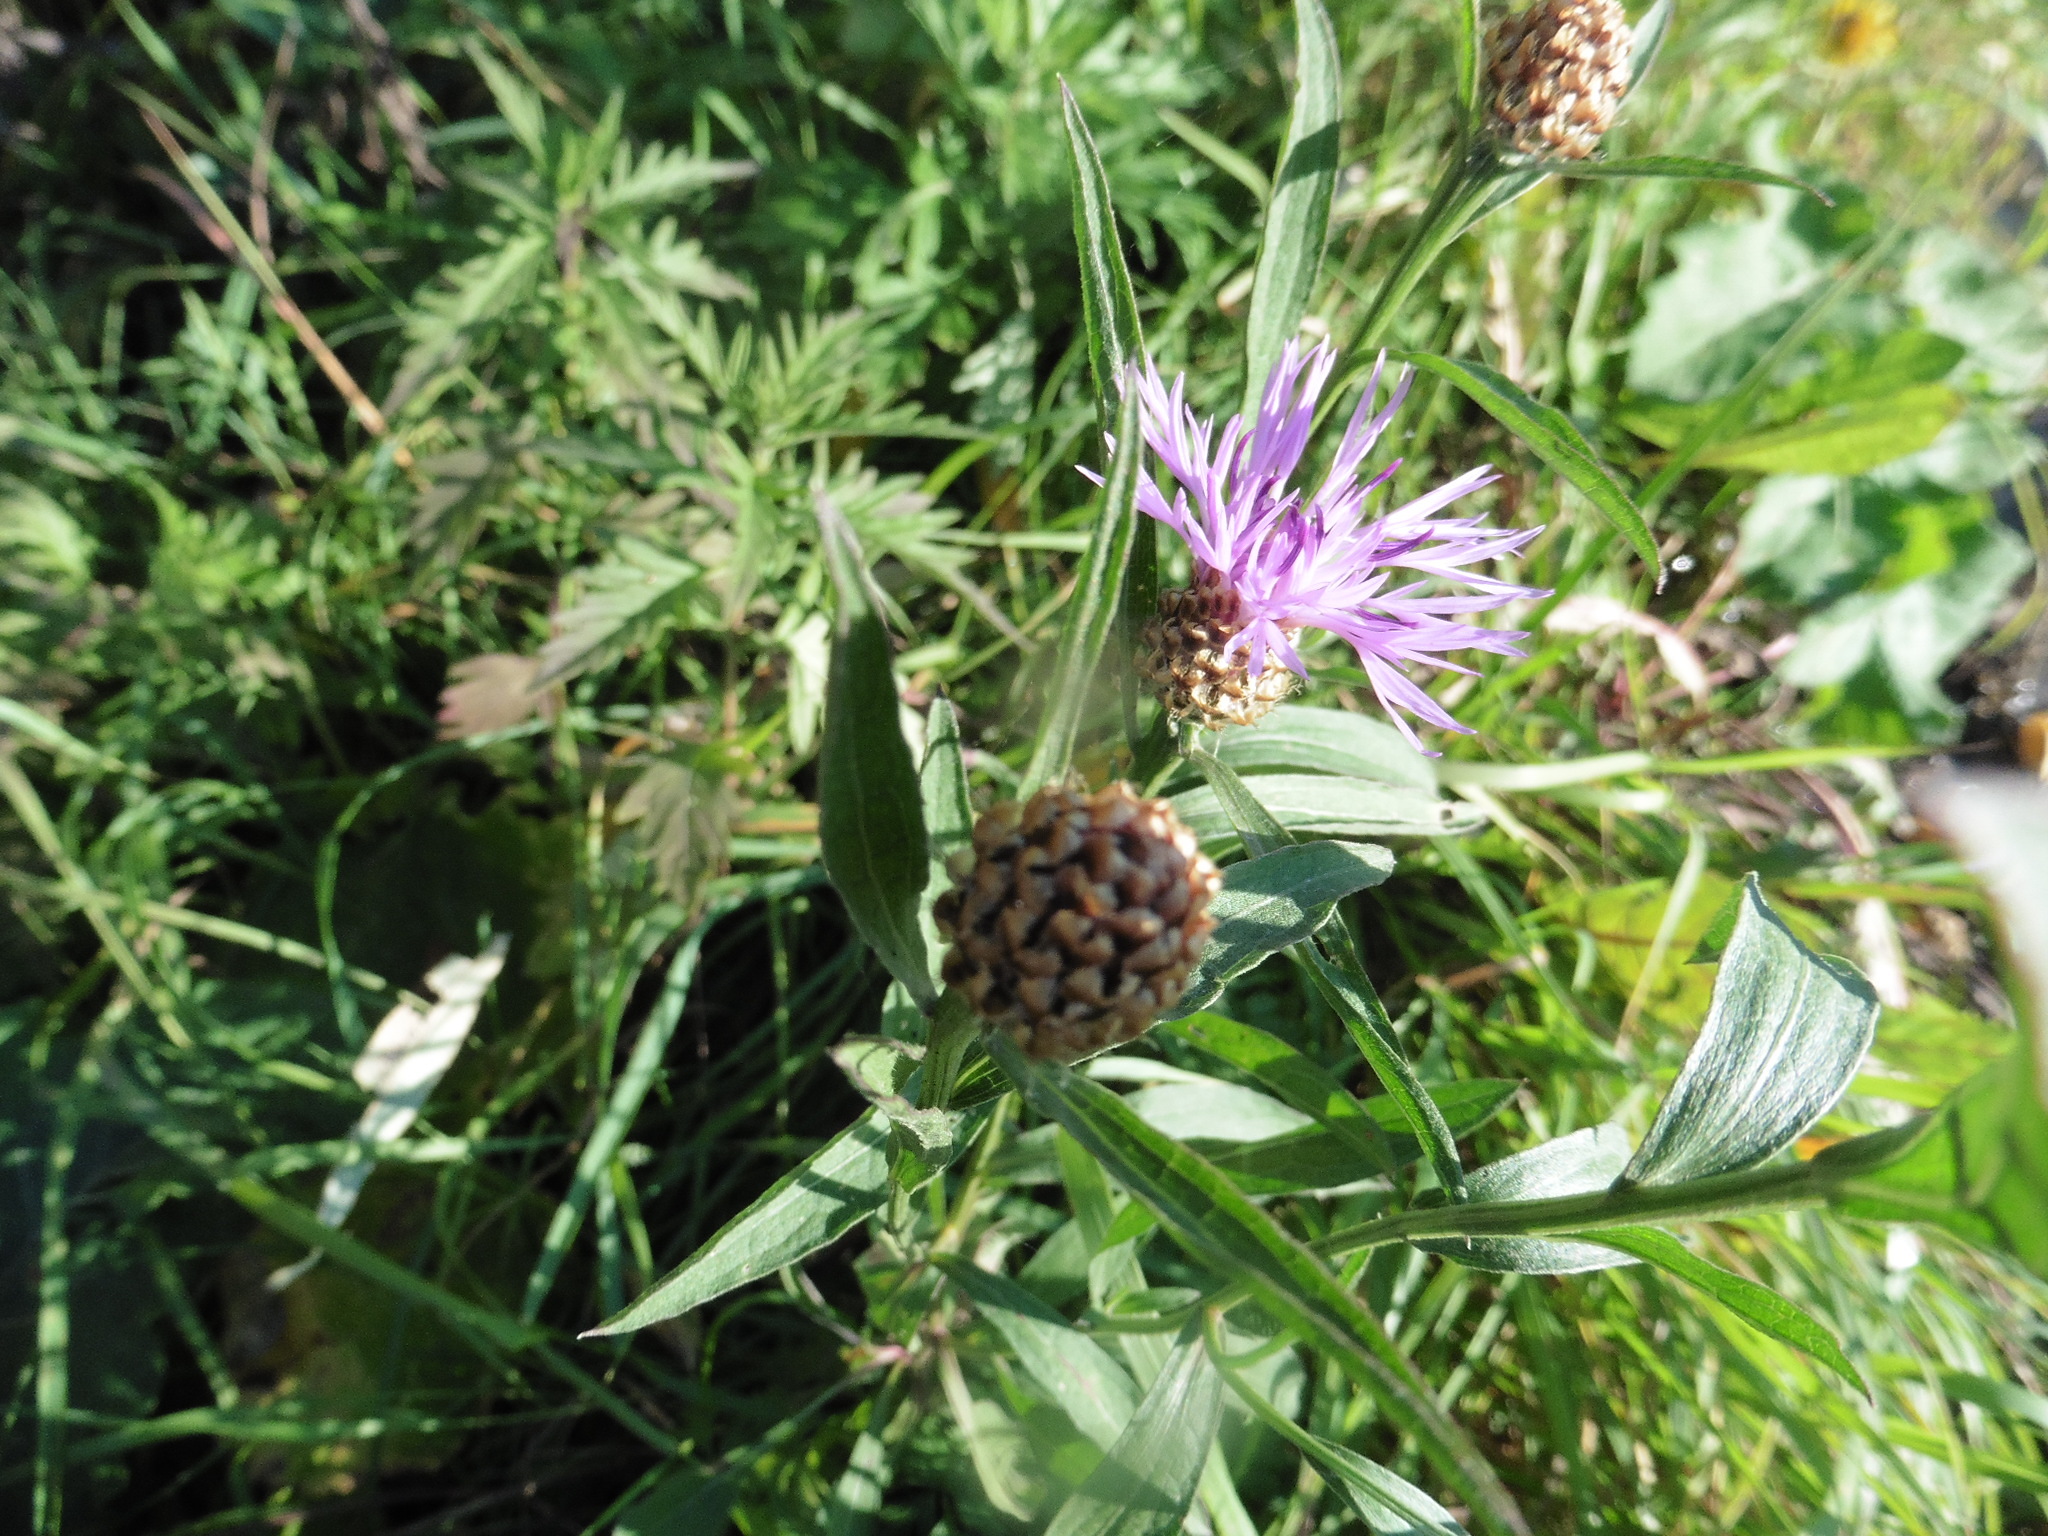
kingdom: Plantae
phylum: Tracheophyta
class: Magnoliopsida
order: Asterales
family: Asteraceae
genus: Centaurea
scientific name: Centaurea jacea
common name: Brown knapweed
